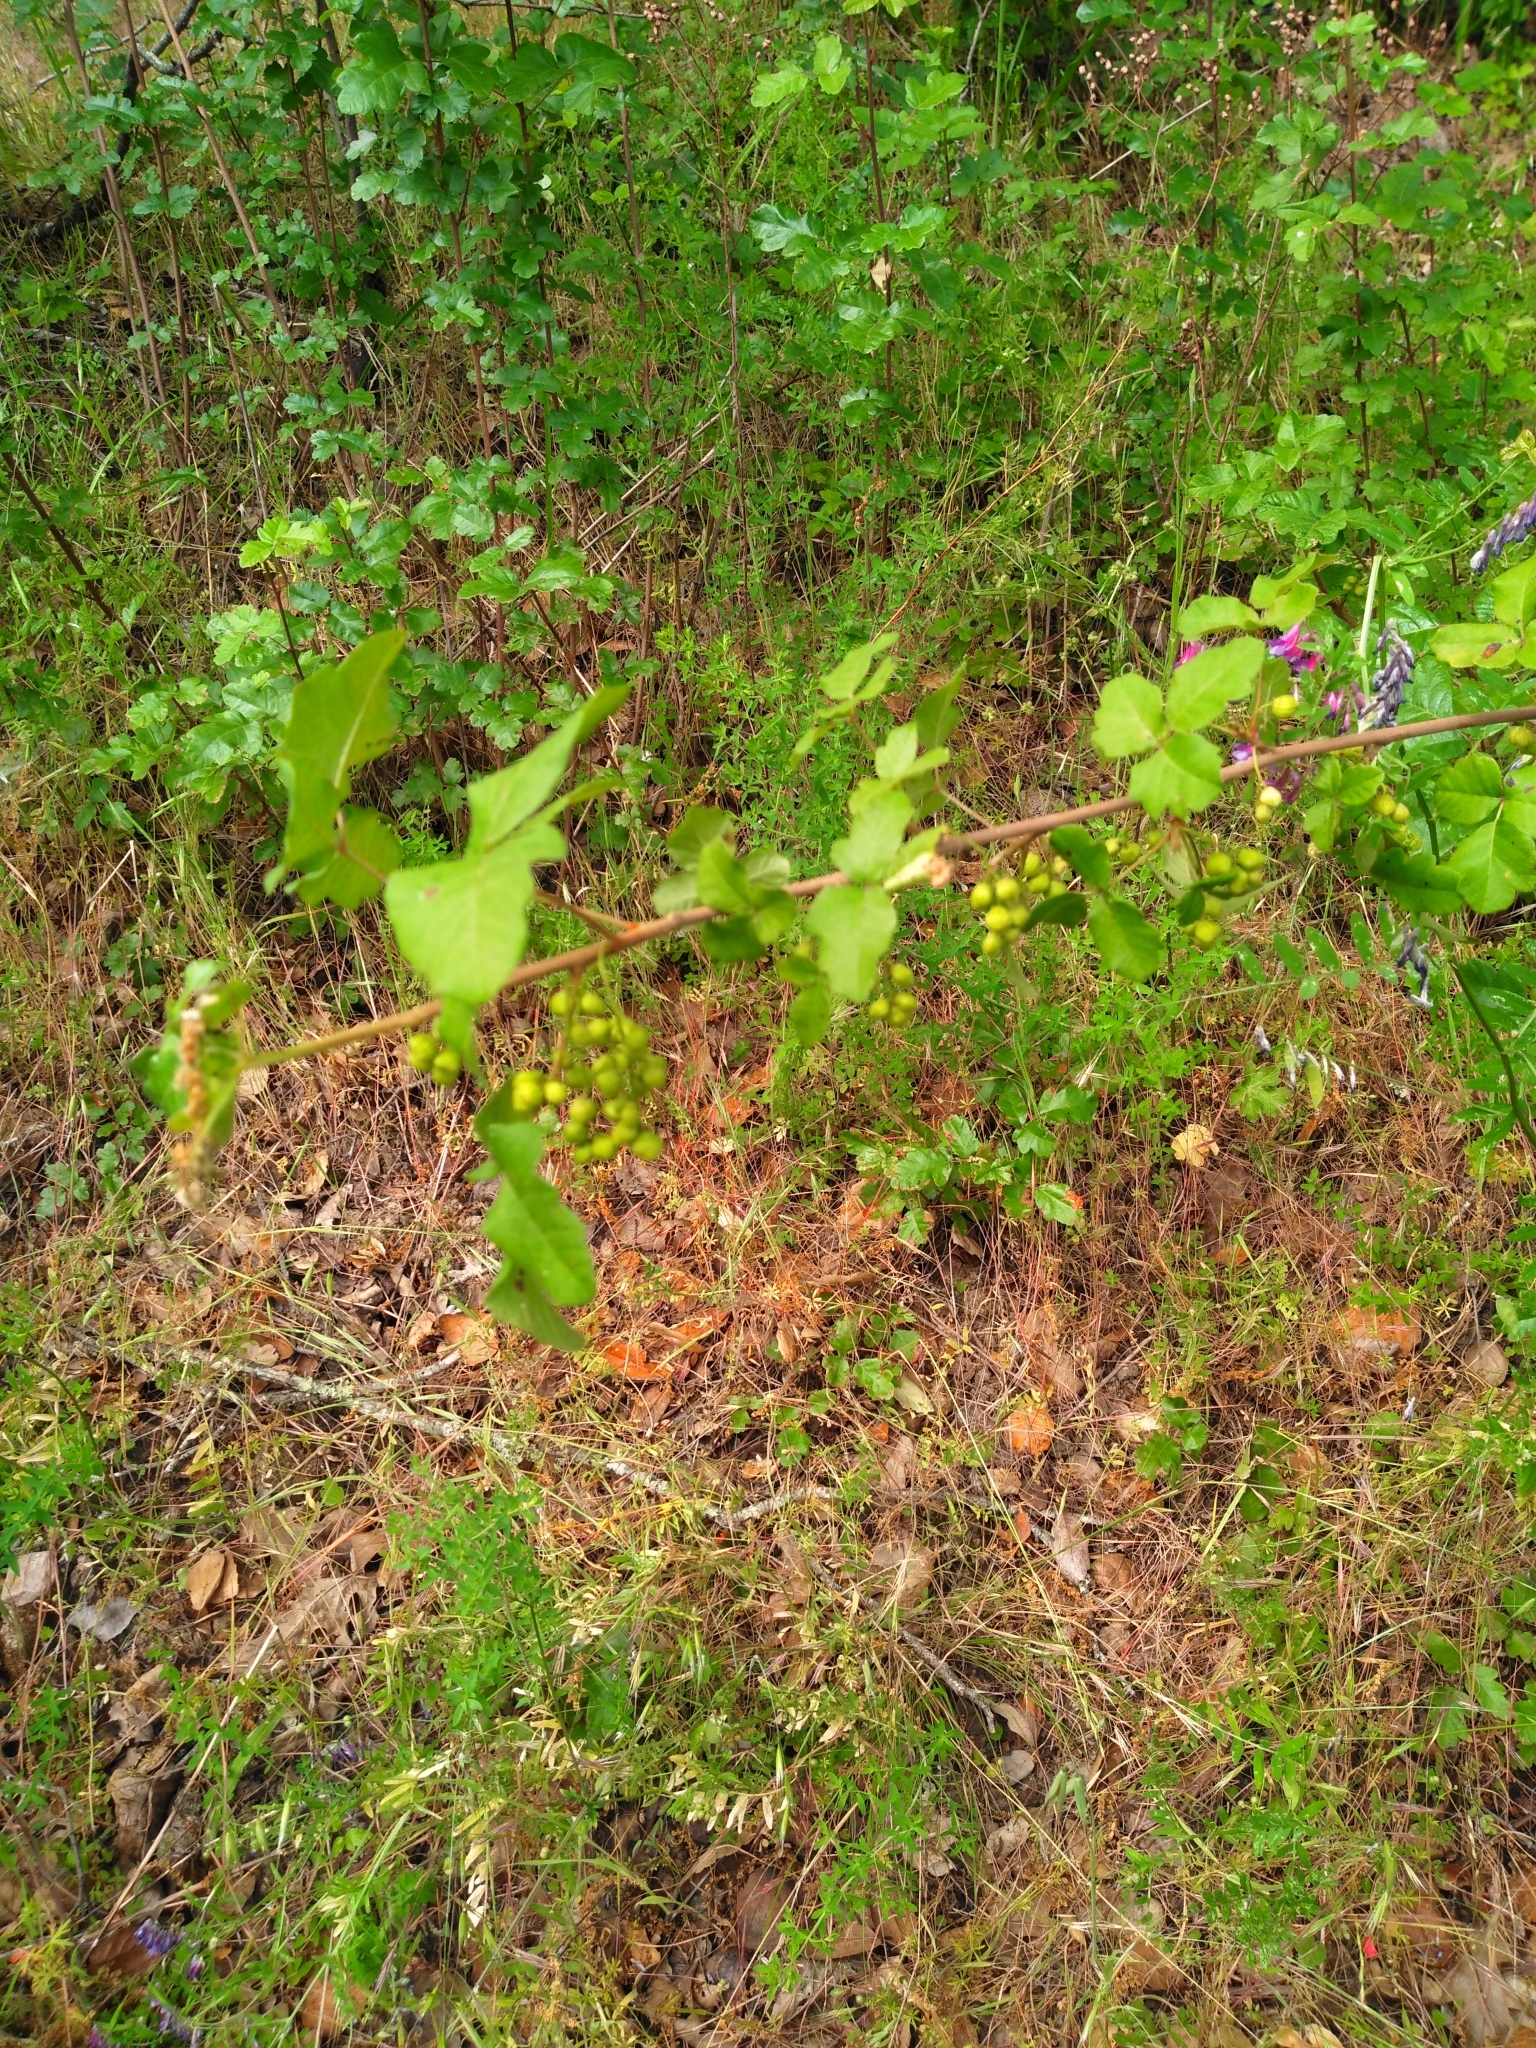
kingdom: Plantae
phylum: Tracheophyta
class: Magnoliopsida
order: Sapindales
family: Anacardiaceae
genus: Toxicodendron
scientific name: Toxicodendron diversilobum
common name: Pacific poison-oak
